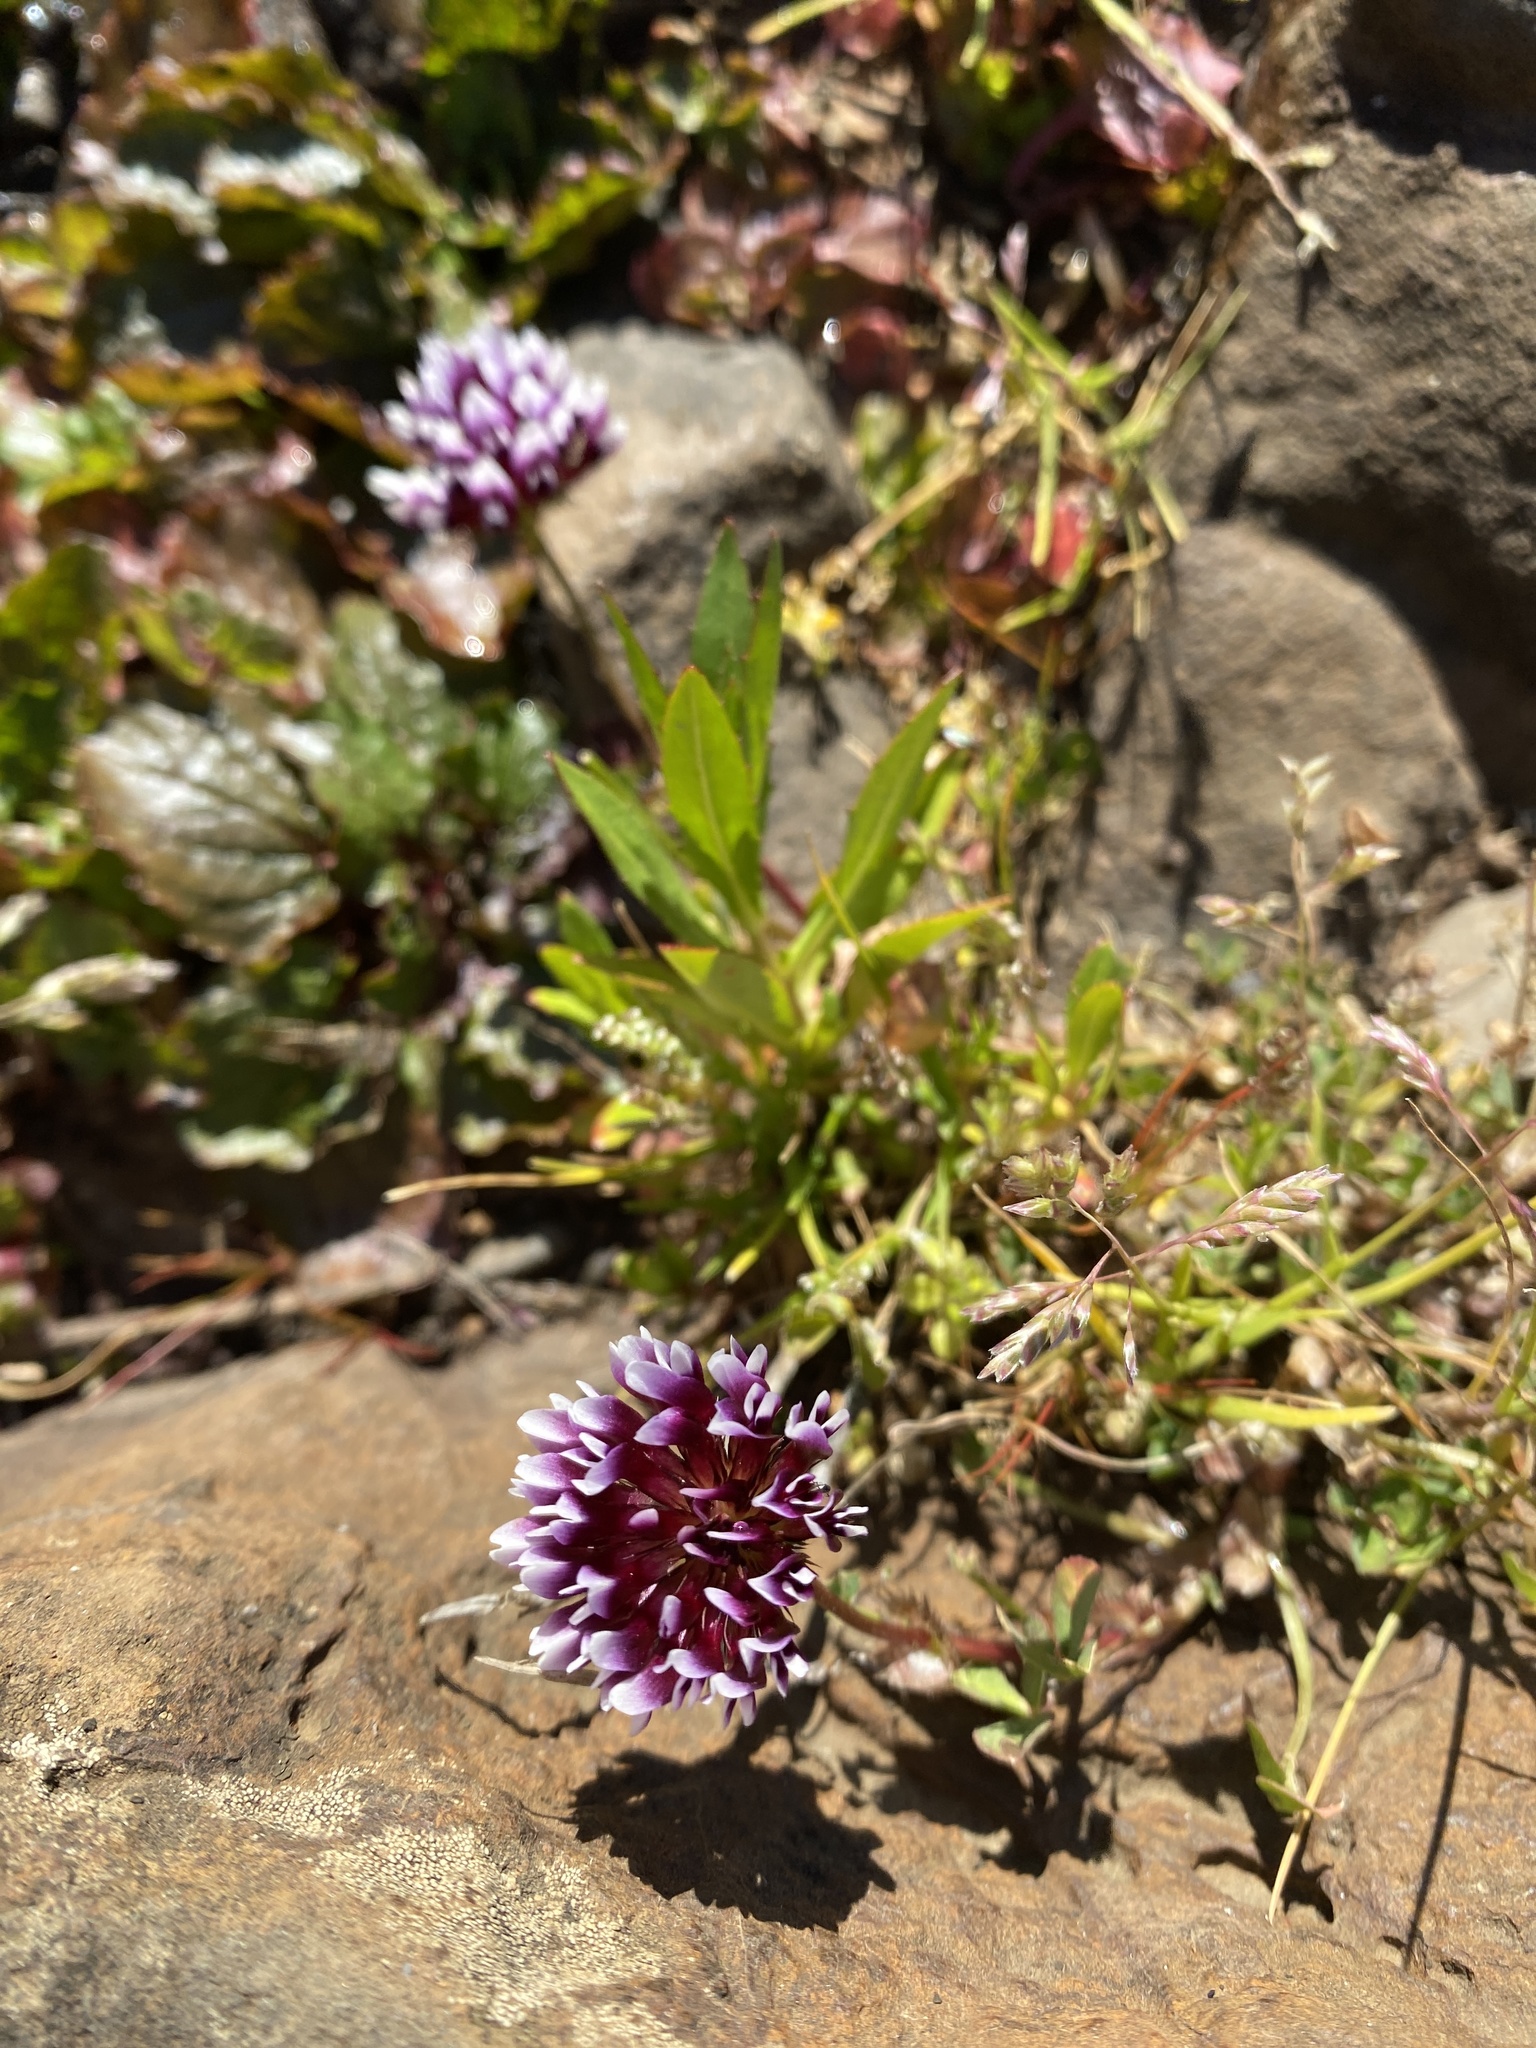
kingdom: Plantae
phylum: Tracheophyta
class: Magnoliopsida
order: Fabales
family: Fabaceae
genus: Trifolium
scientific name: Trifolium variegatum
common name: Whitetip clover
